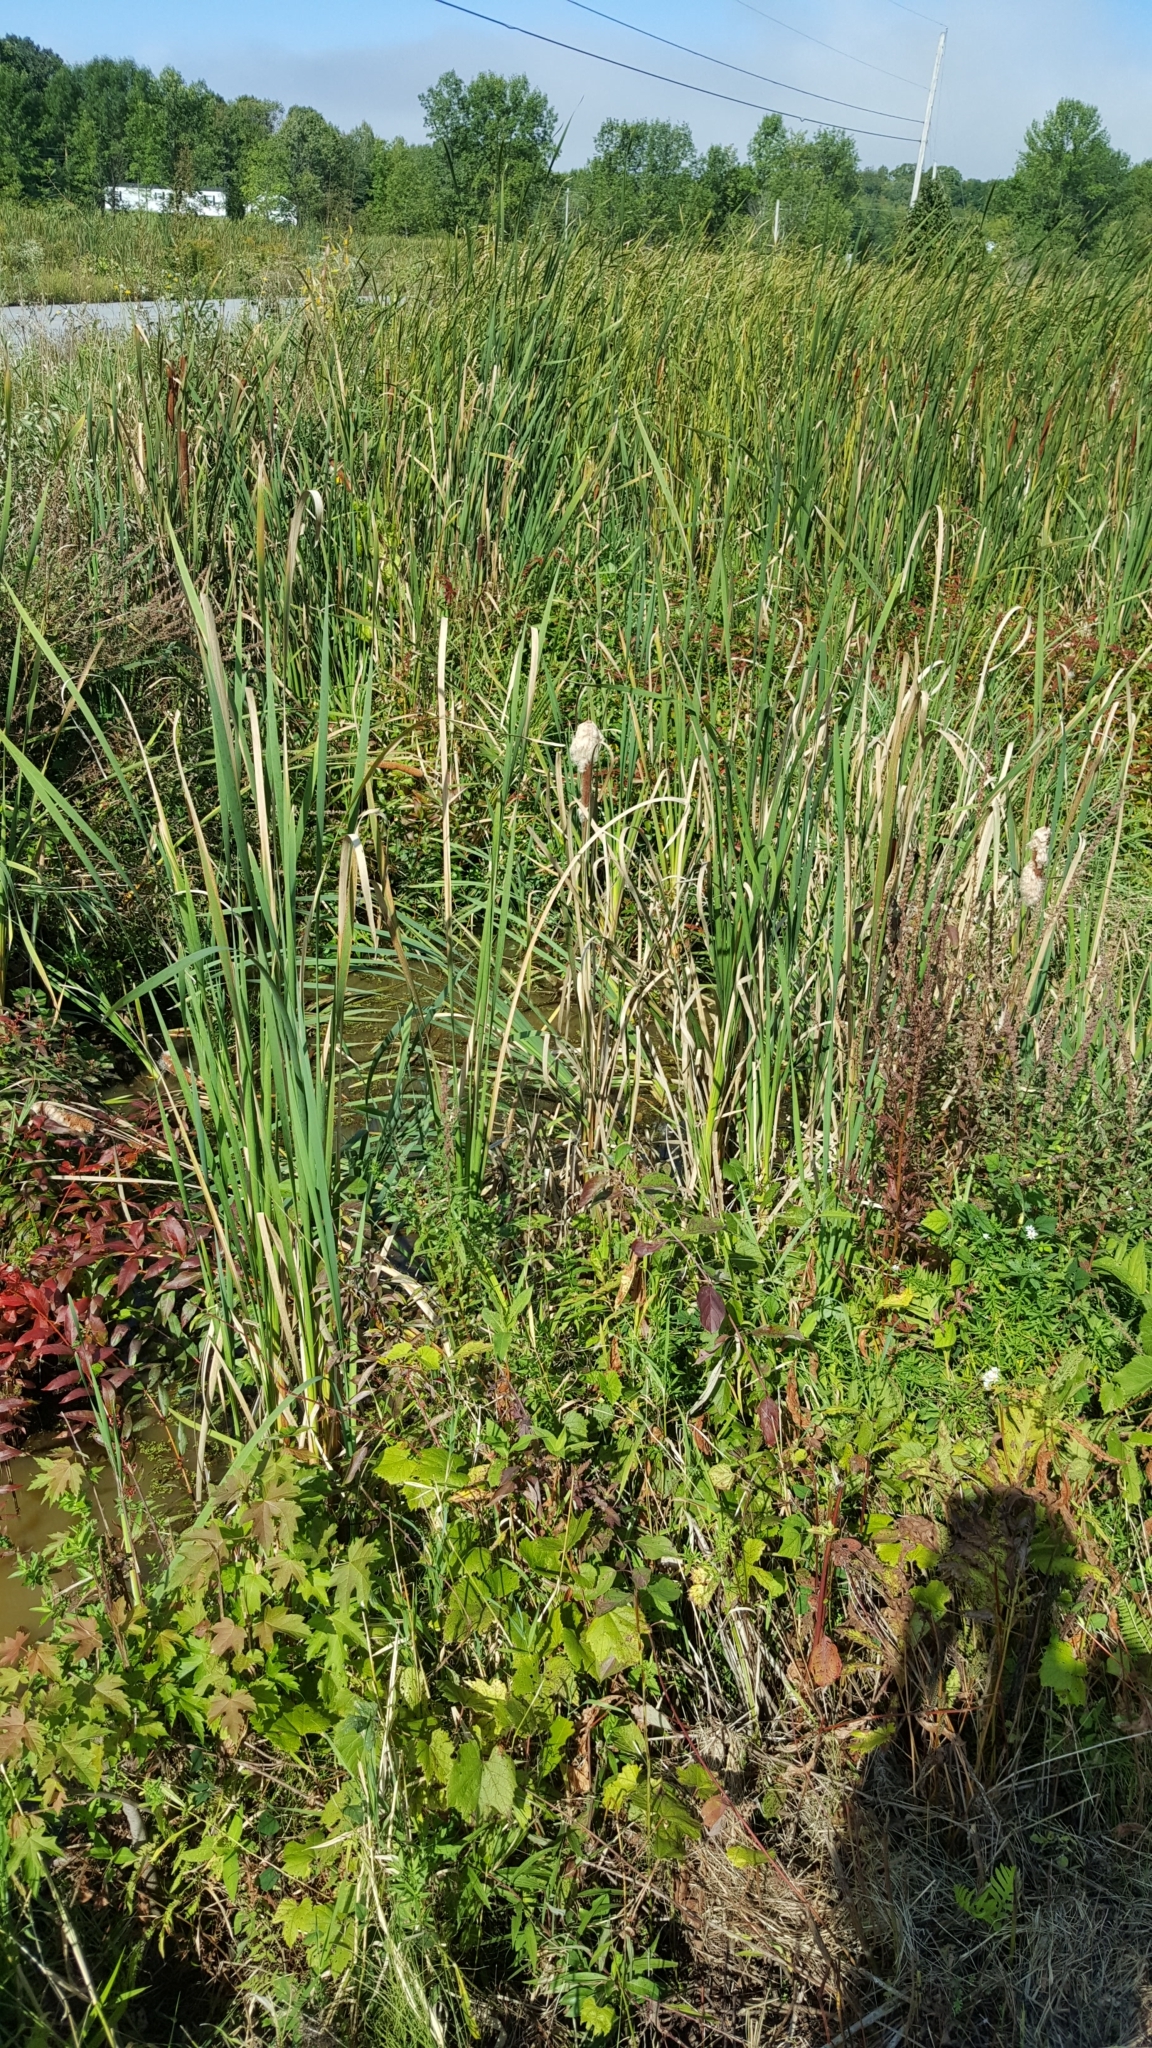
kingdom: Plantae
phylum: Tracheophyta
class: Liliopsida
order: Poales
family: Typhaceae
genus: Typha
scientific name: Typha latifolia
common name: Broadleaf cattail
